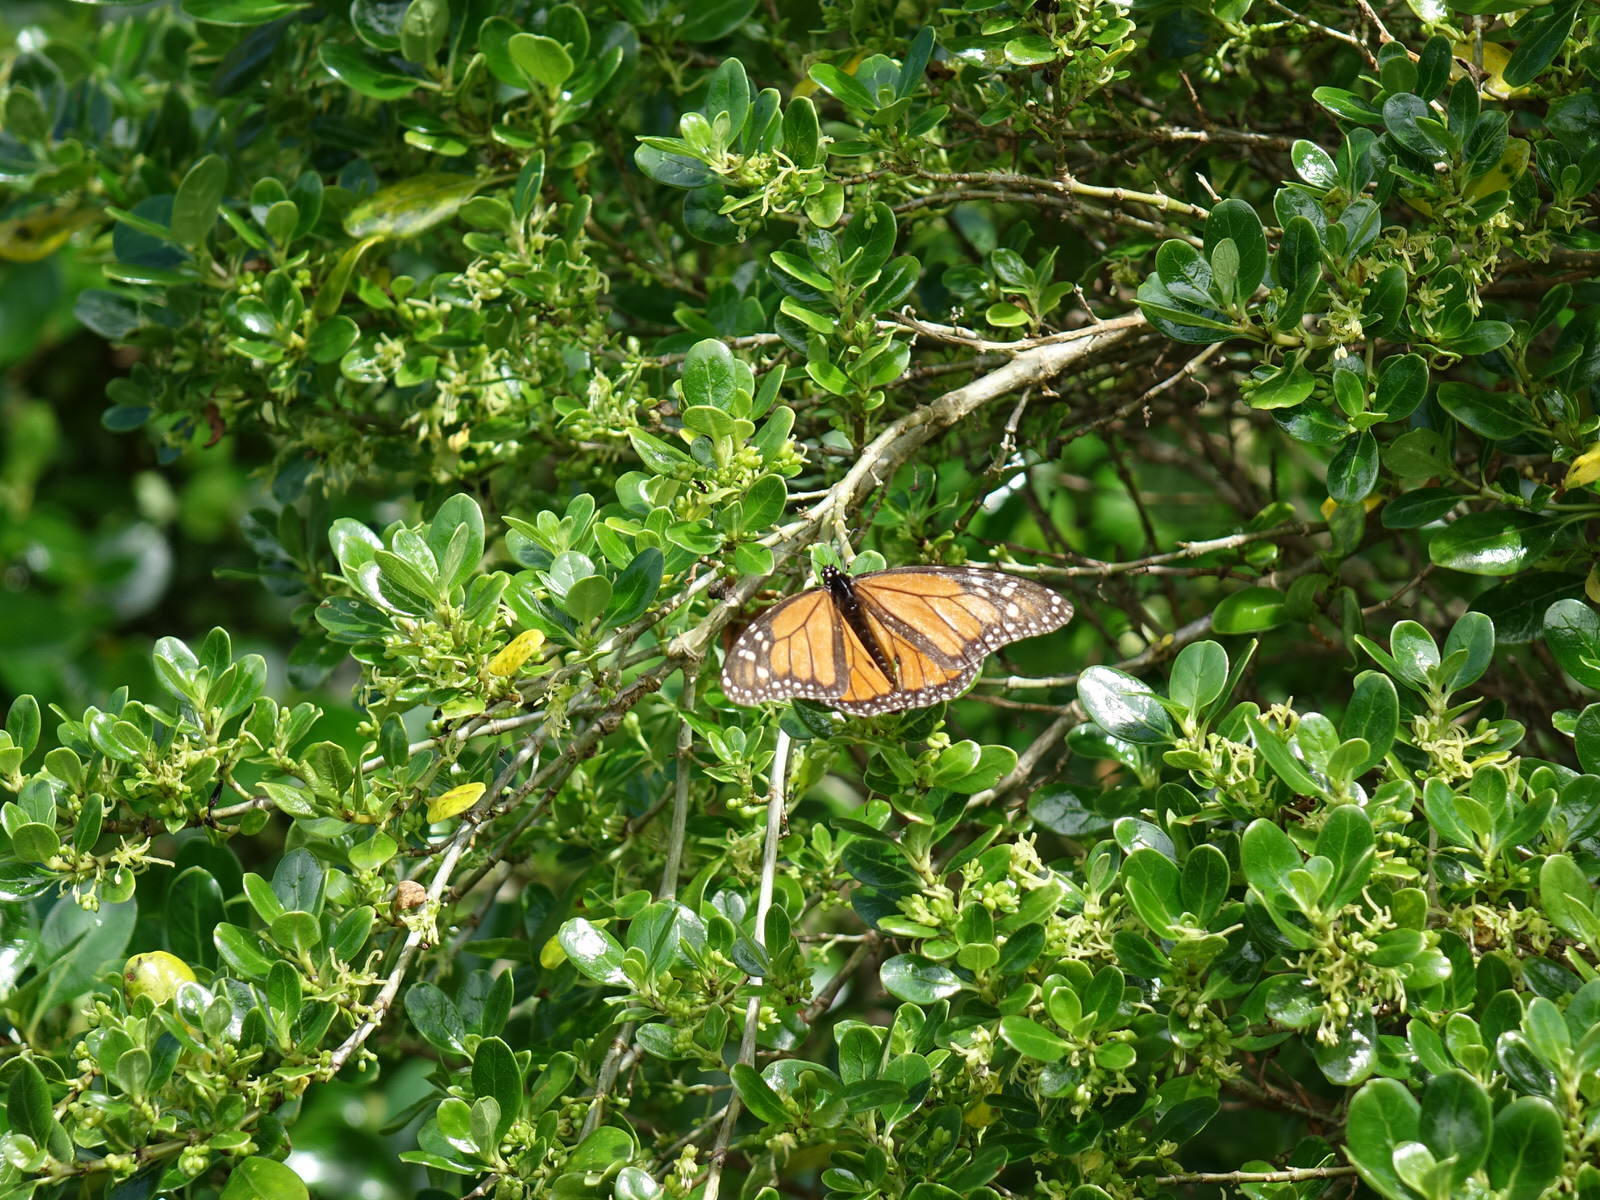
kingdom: Animalia
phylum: Arthropoda
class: Insecta
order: Lepidoptera
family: Nymphalidae
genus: Danaus
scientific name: Danaus plexippus
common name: Monarch
